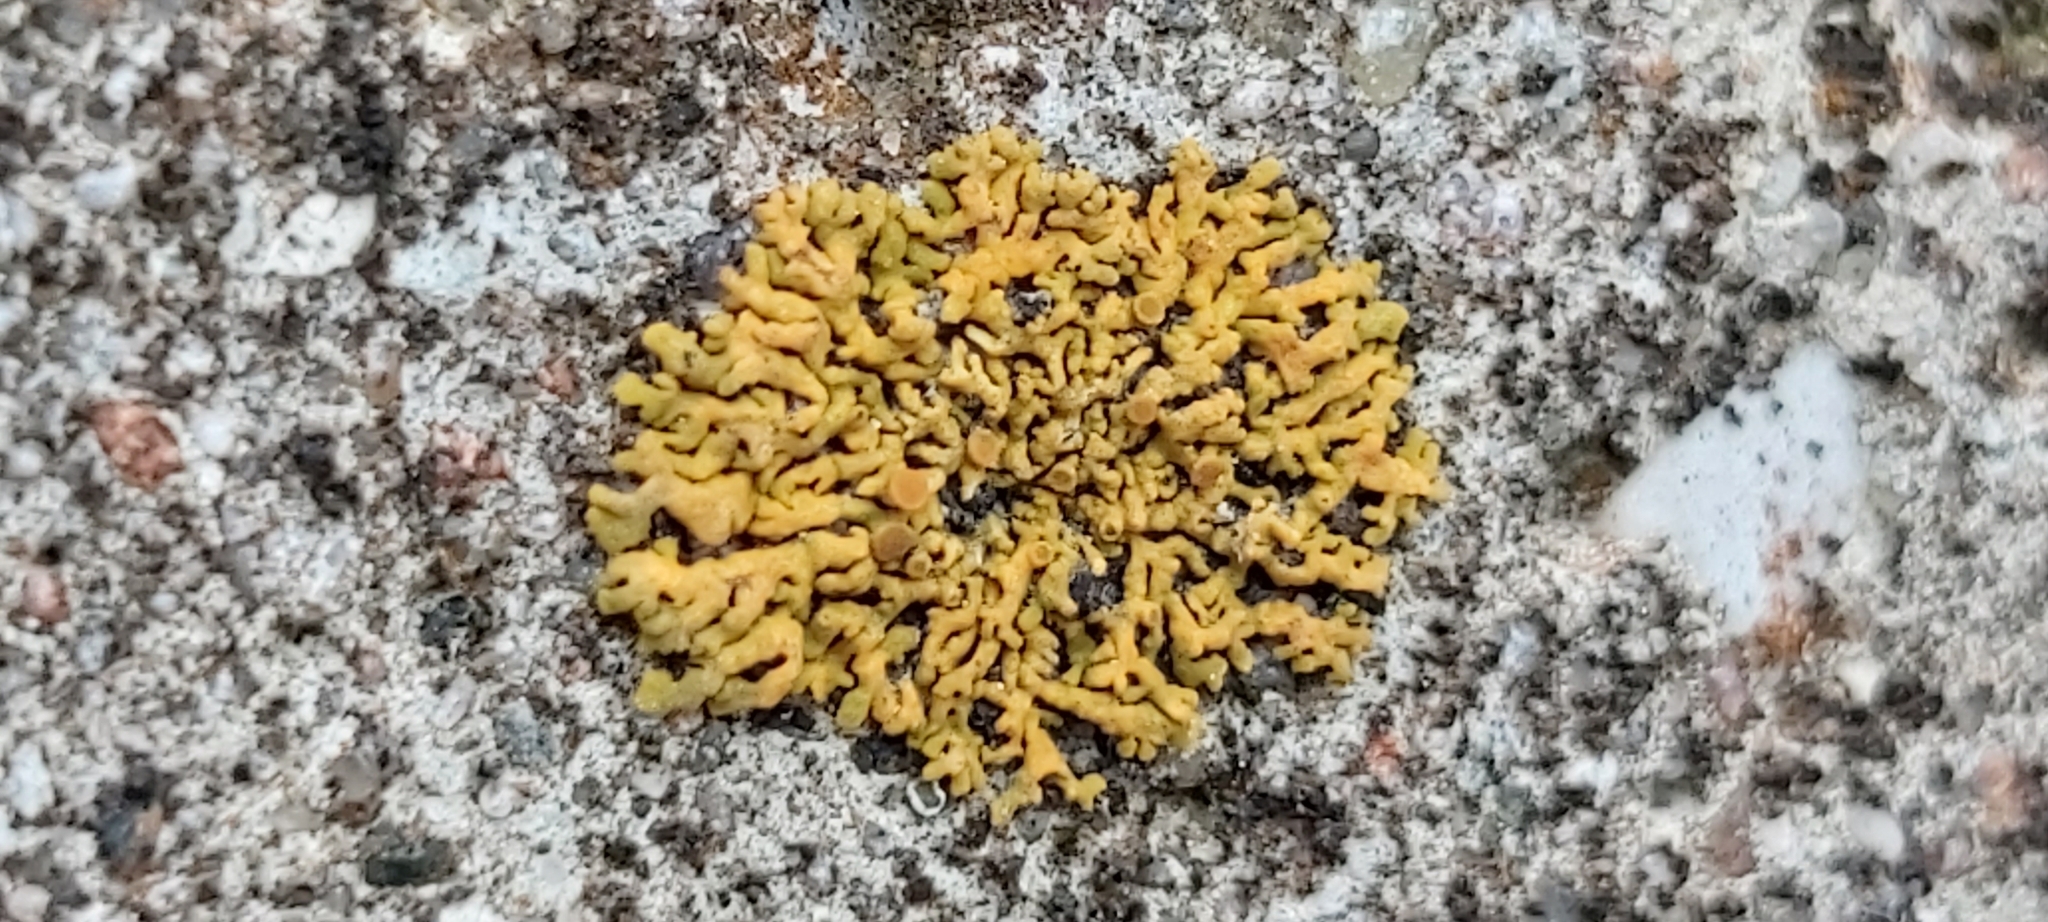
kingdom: Fungi
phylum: Ascomycota
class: Lecanoromycetes
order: Teloschistales
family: Teloschistaceae
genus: Xanthoria
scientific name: Xanthoria elegans
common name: Elegant sunburst lichen
